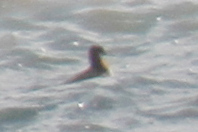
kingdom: Animalia
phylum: Chordata
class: Aves
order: Charadriiformes
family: Scolopacidae
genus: Phalaropus
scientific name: Phalaropus lobatus
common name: Red-necked phalarope
